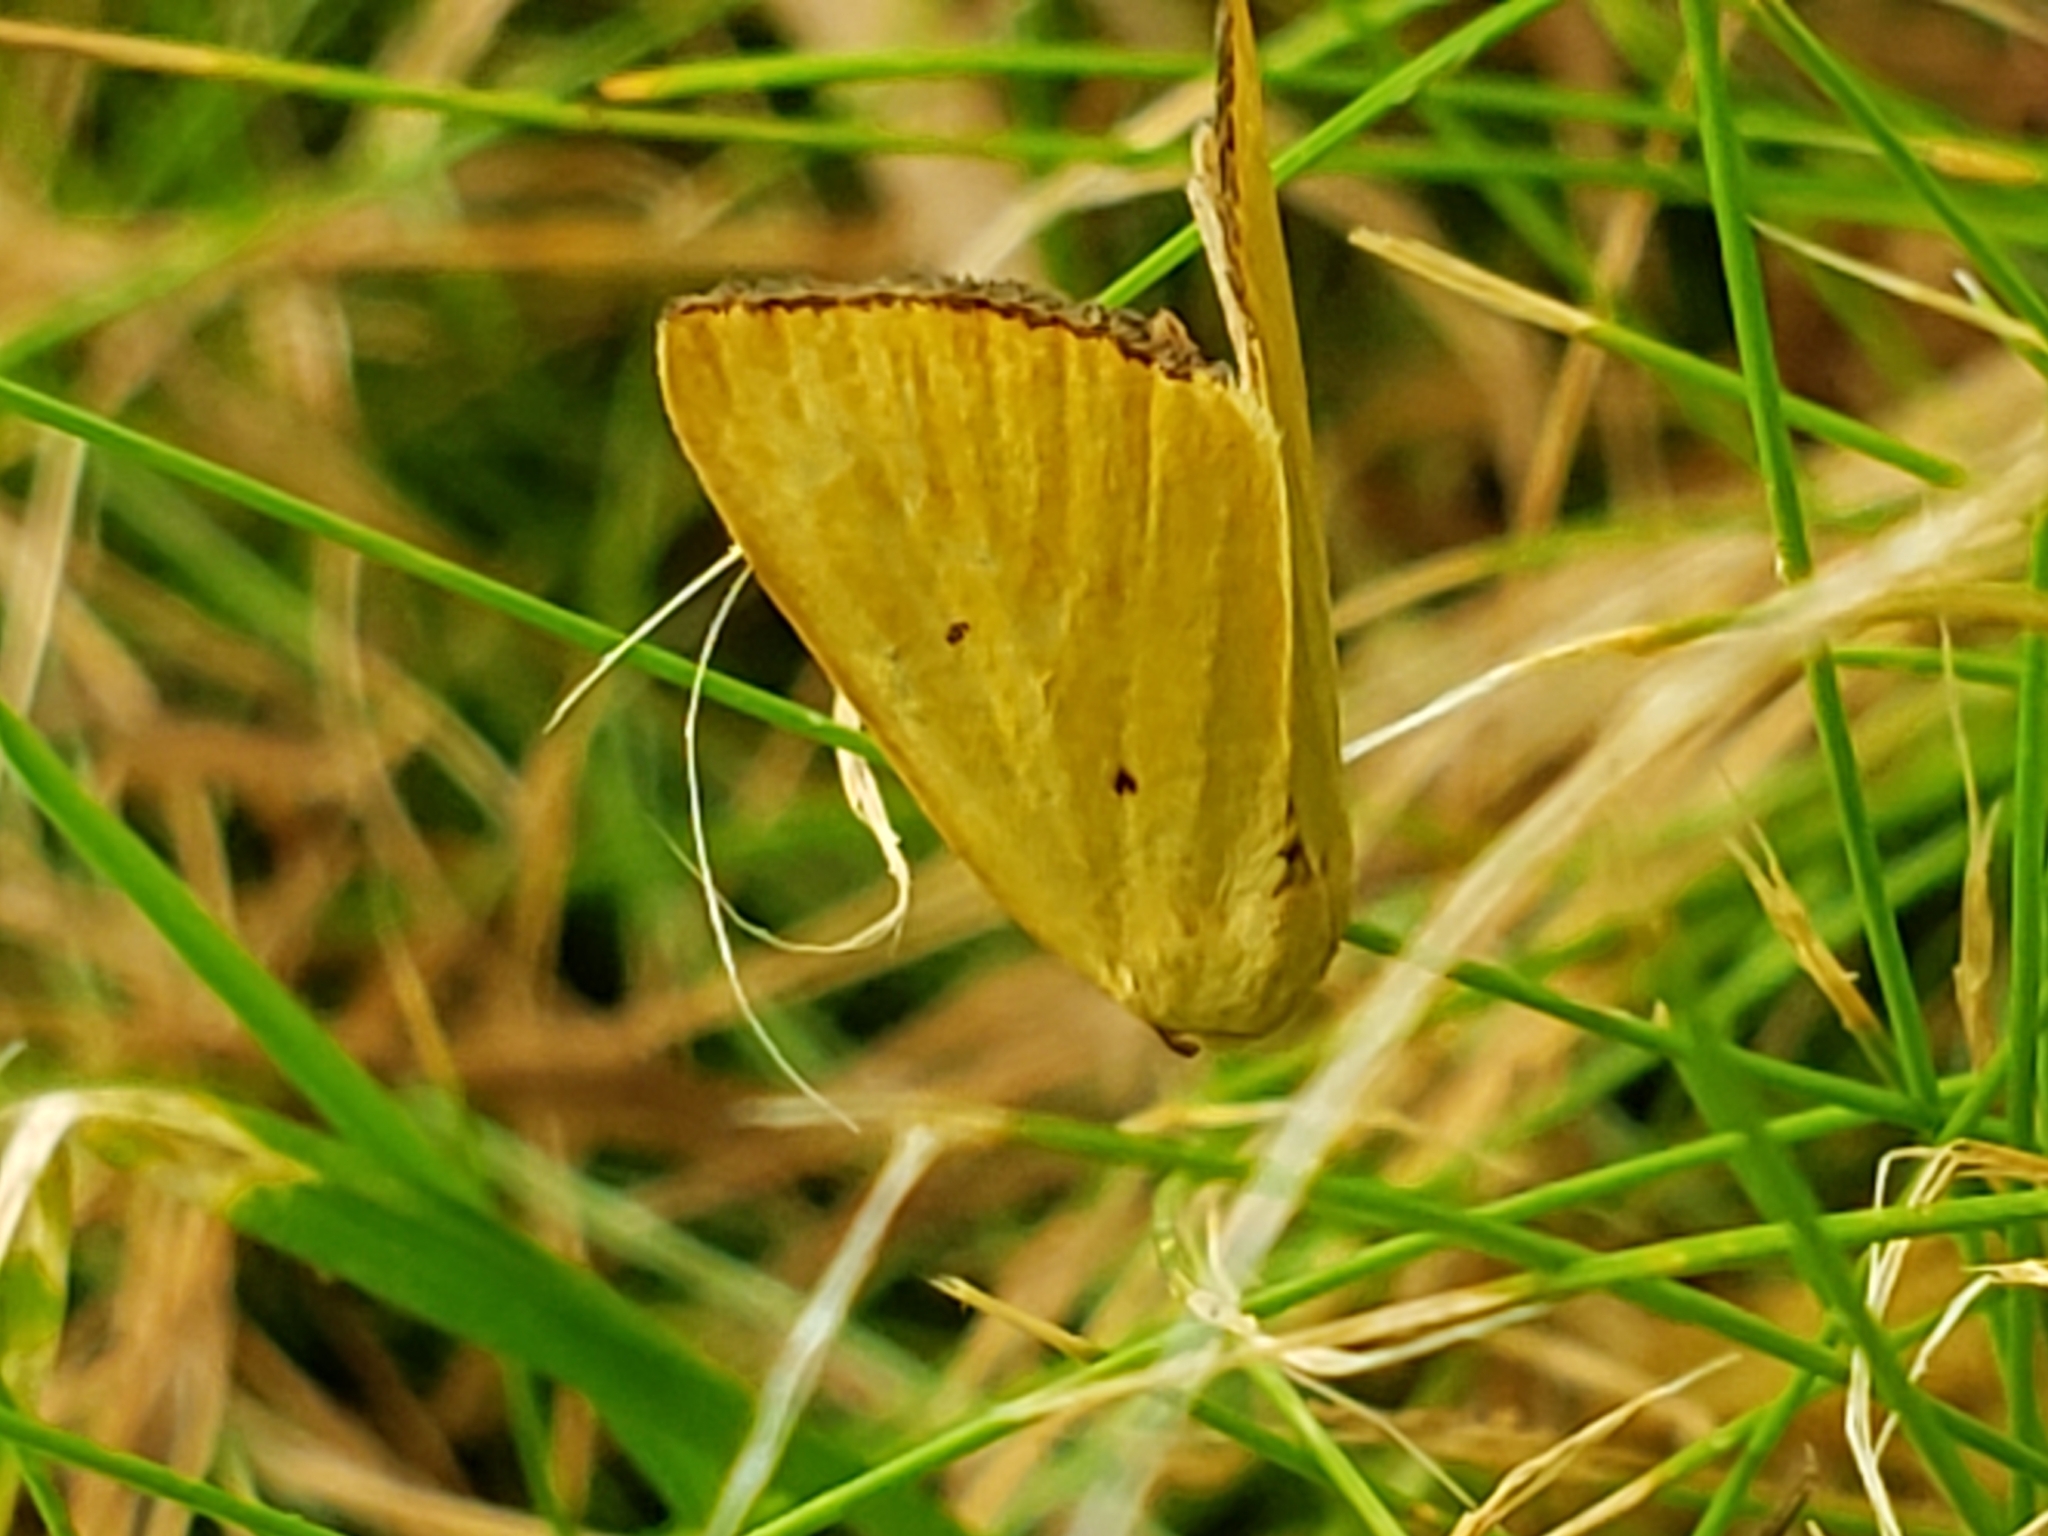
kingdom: Animalia
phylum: Arthropoda
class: Insecta
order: Lepidoptera
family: Noctuidae
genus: Marimatha
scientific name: Marimatha nigrofimbria
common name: Black-bordered lemon moth
